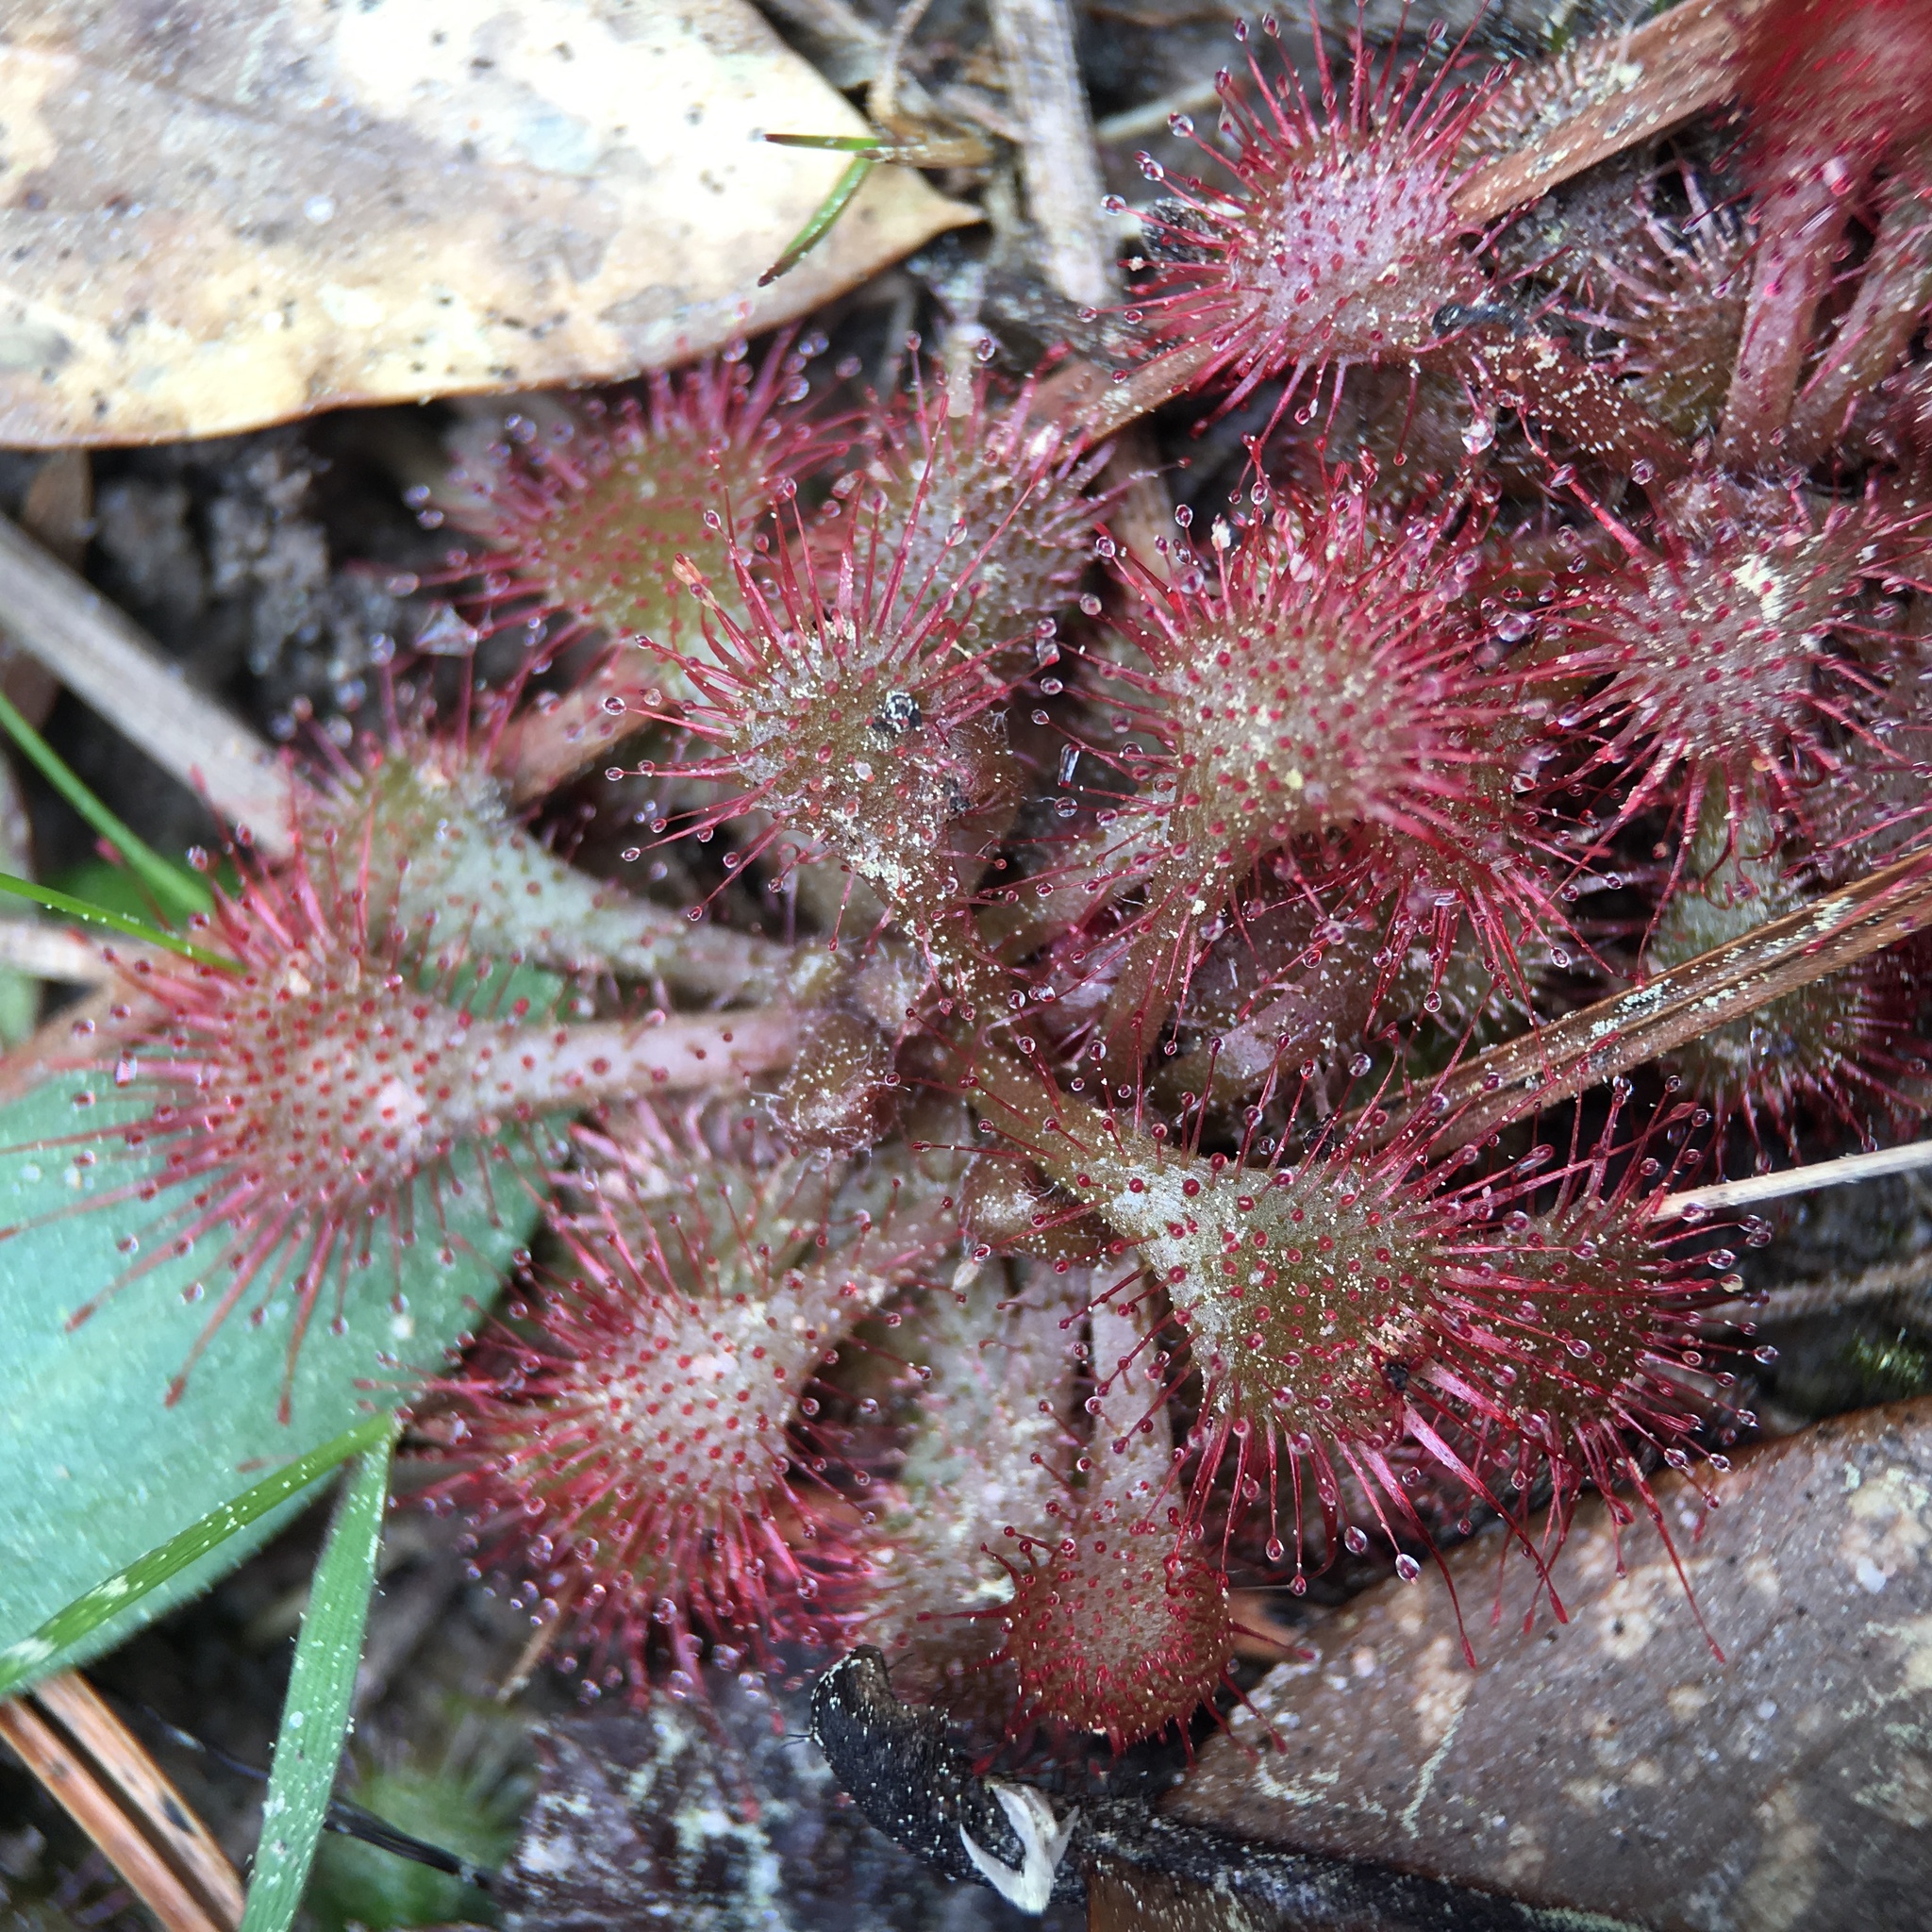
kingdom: Plantae
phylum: Tracheophyta
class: Magnoliopsida
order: Caryophyllales
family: Droseraceae
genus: Drosera
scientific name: Drosera brevifolia
